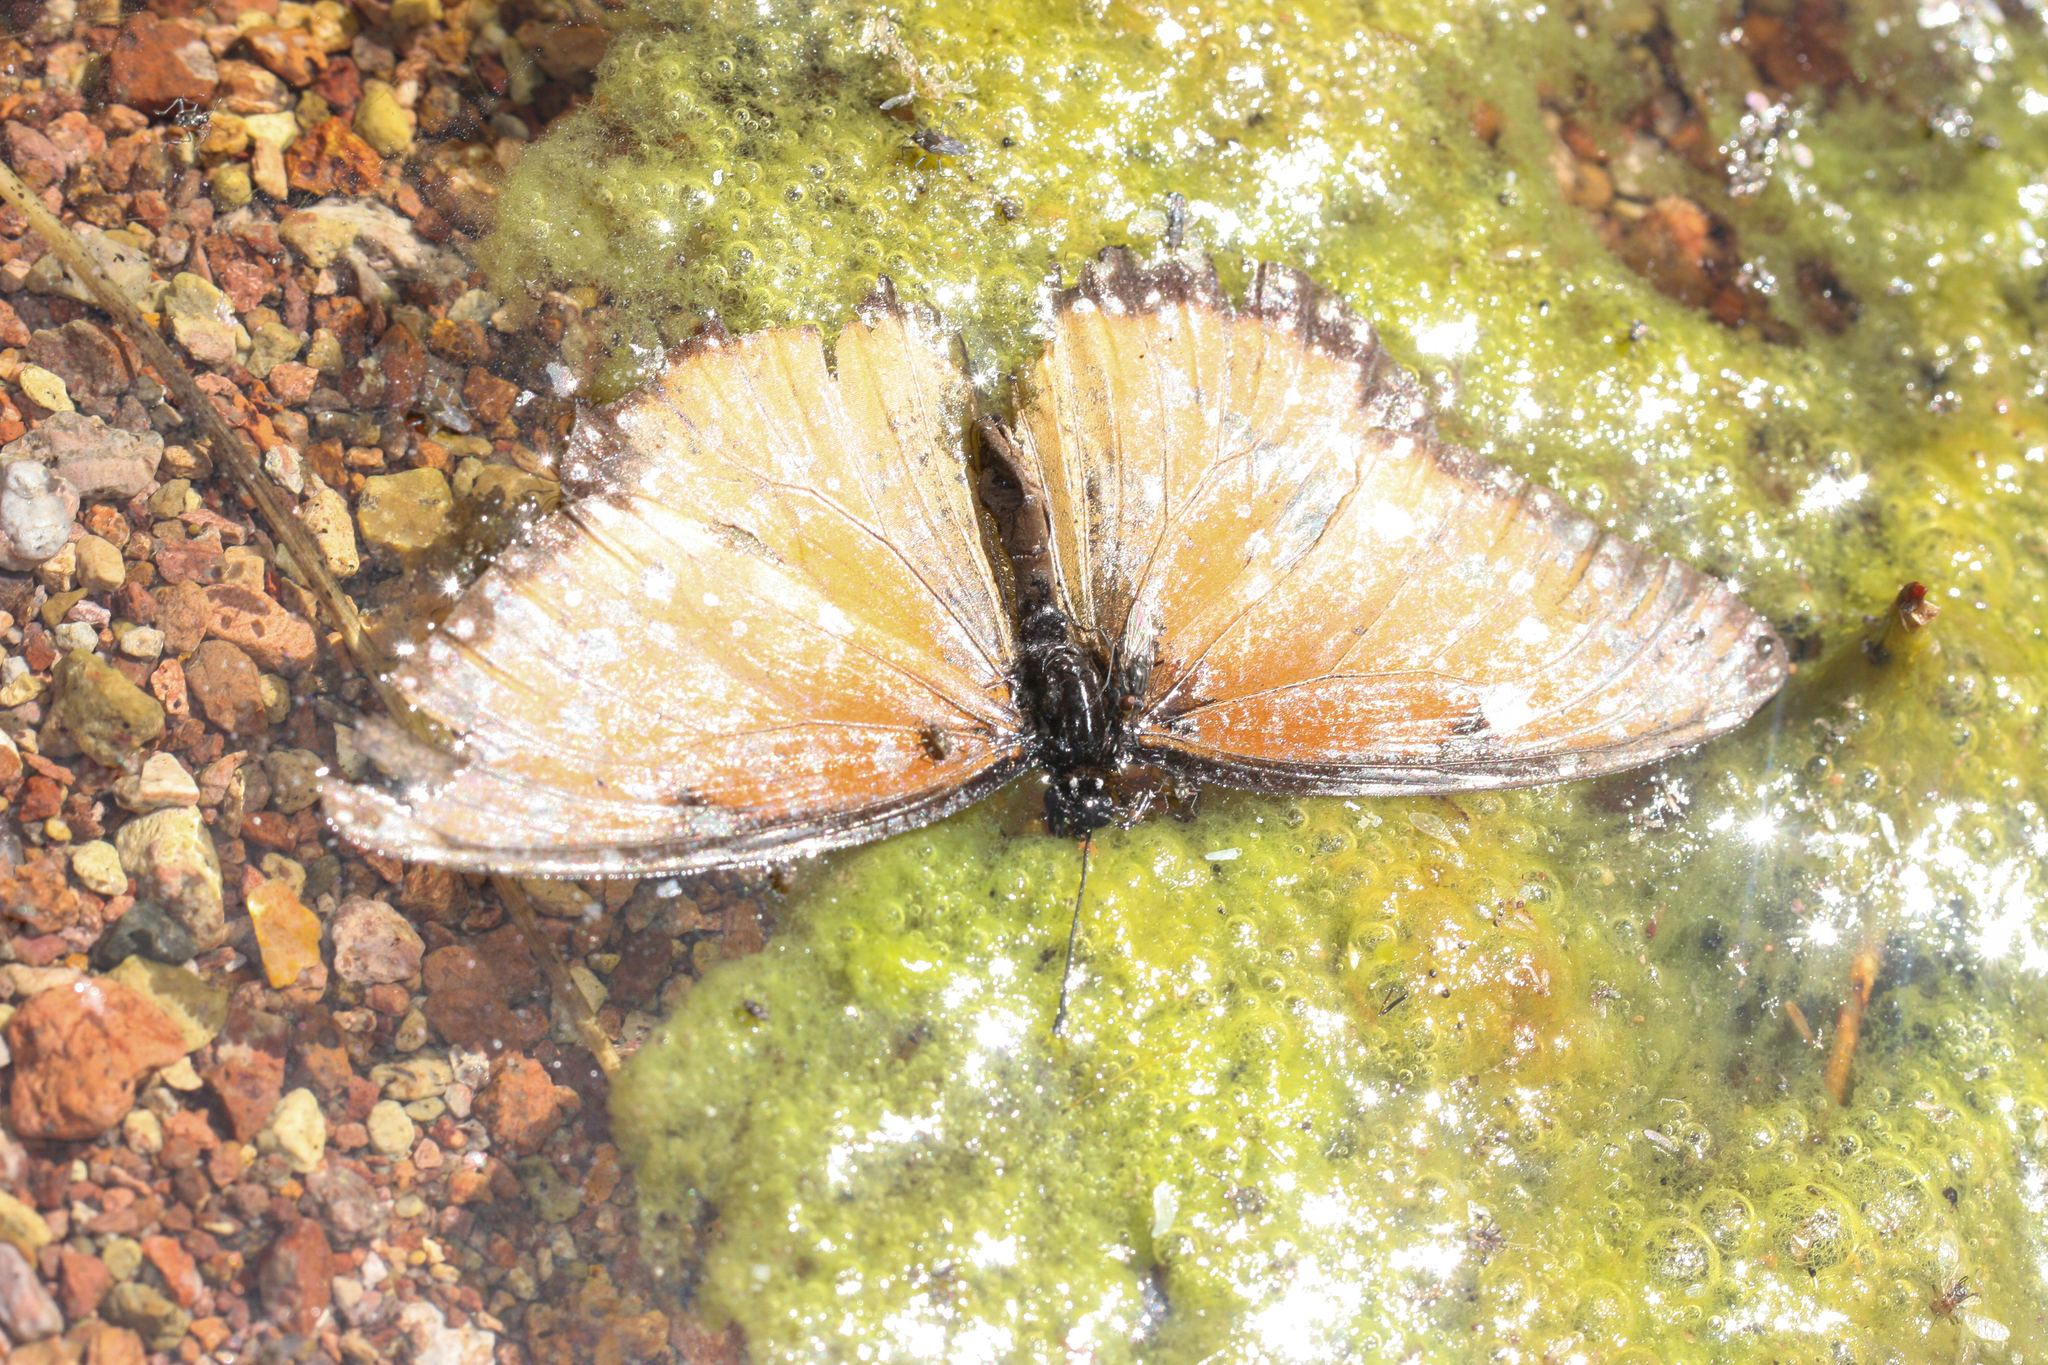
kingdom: Animalia
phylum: Arthropoda
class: Insecta
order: Lepidoptera
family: Nymphalidae
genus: Danaus
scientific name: Danaus gilippus
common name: Queen
